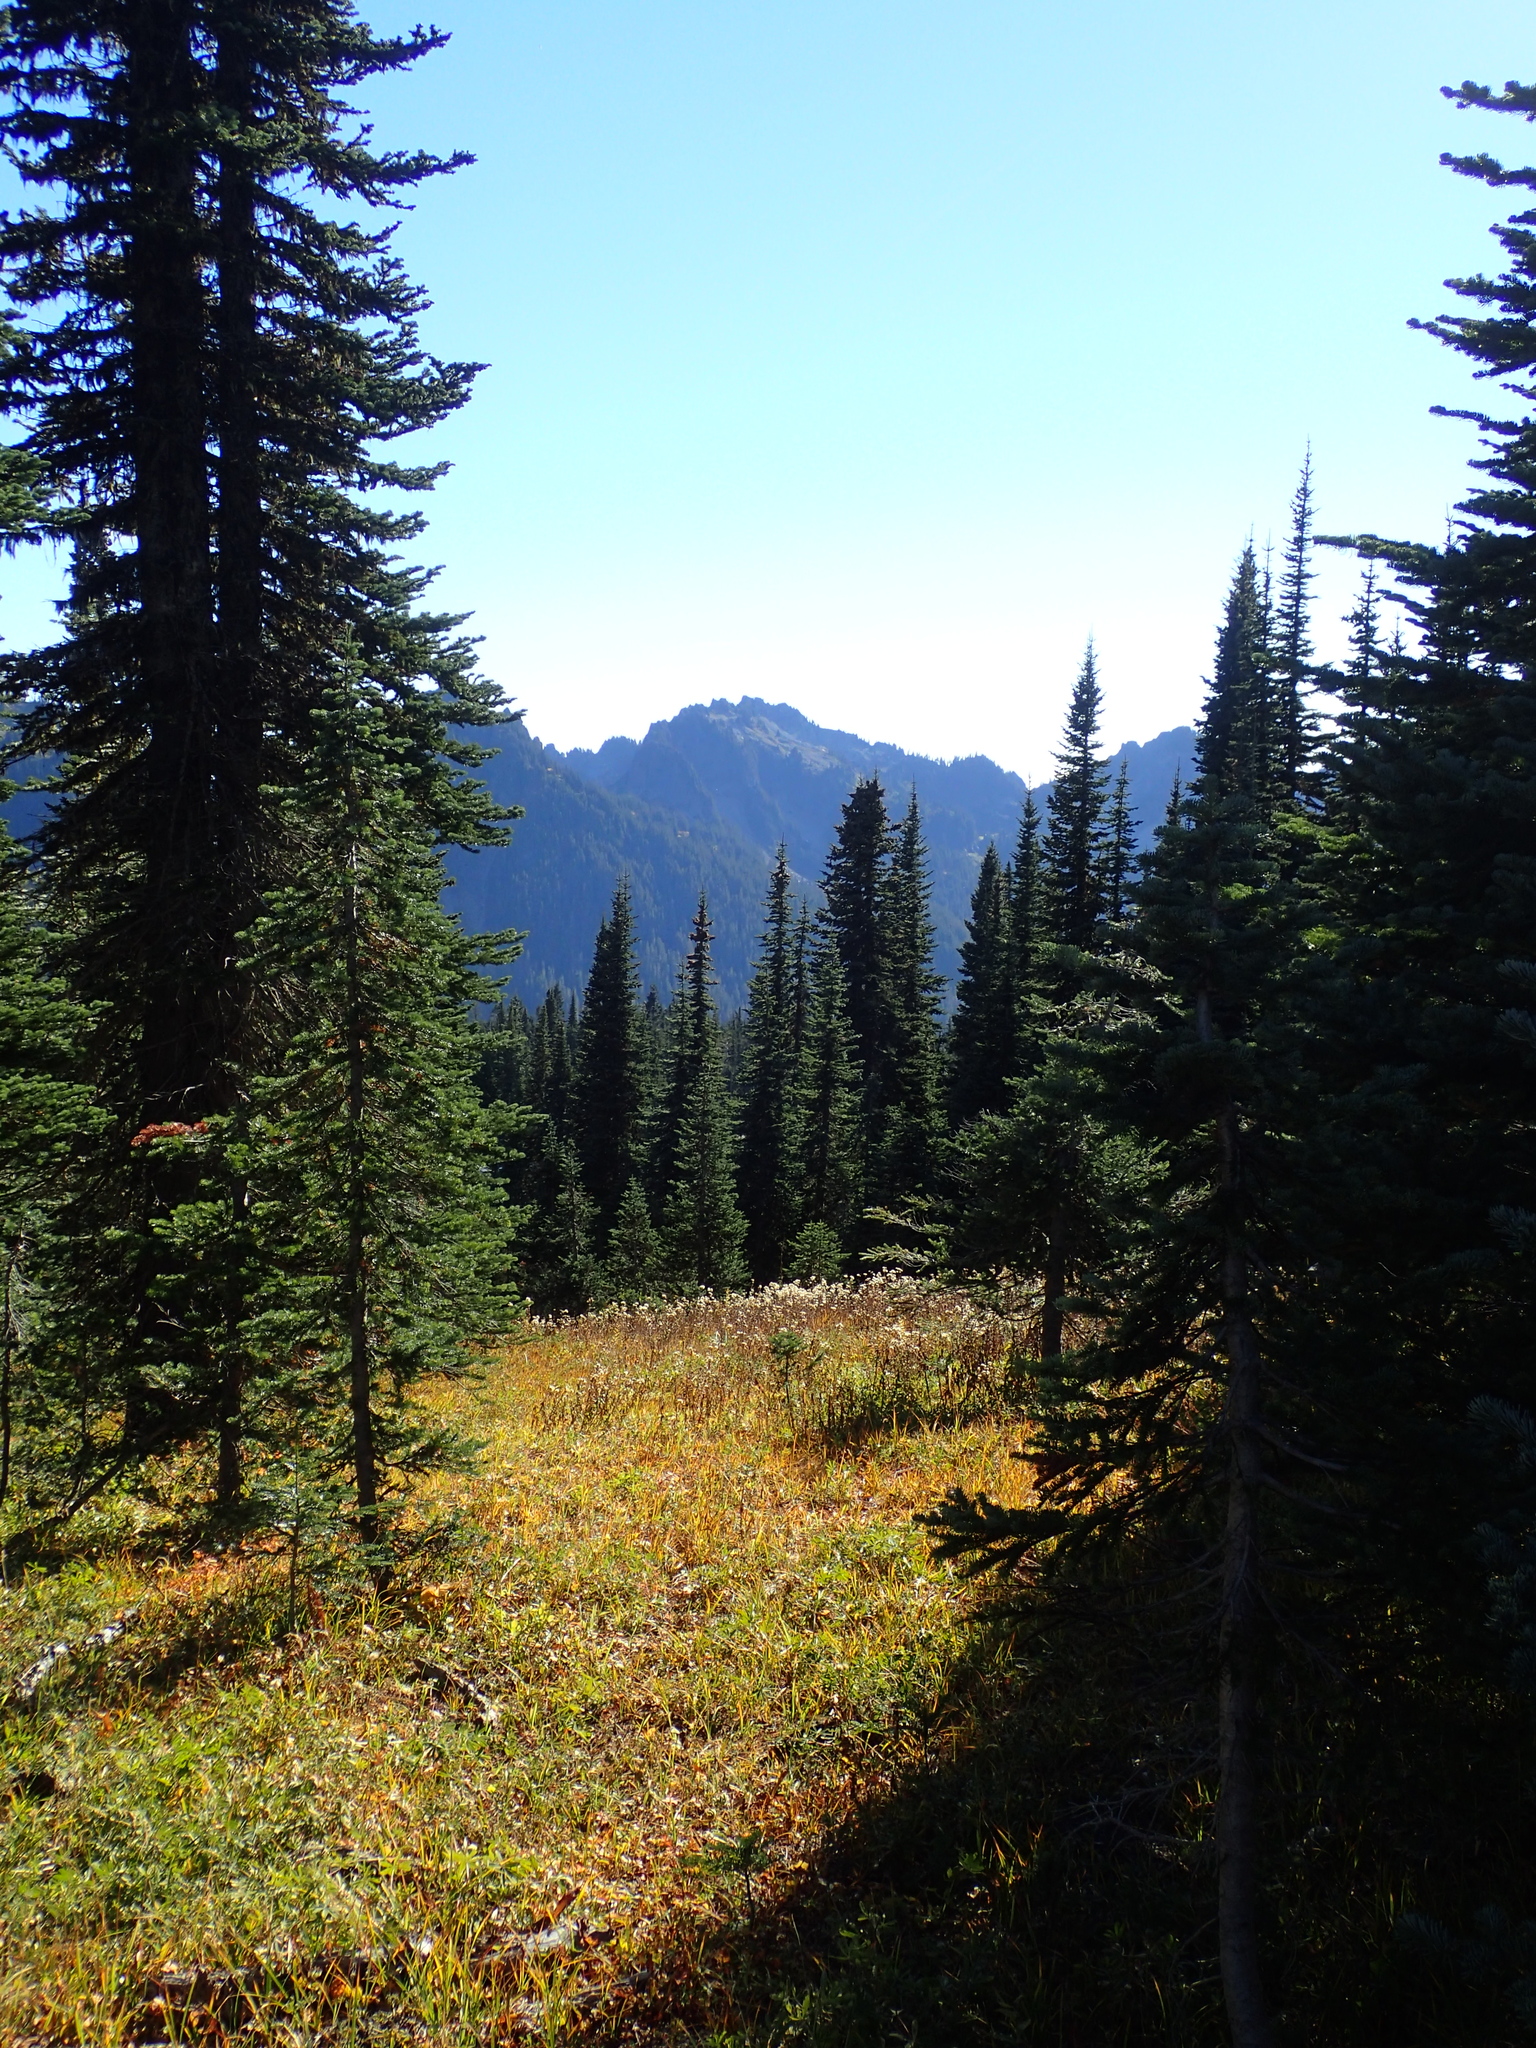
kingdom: Plantae
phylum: Tracheophyta
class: Pinopsida
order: Pinales
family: Pinaceae
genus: Abies
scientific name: Abies lasiocarpa
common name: Subalpine fir
